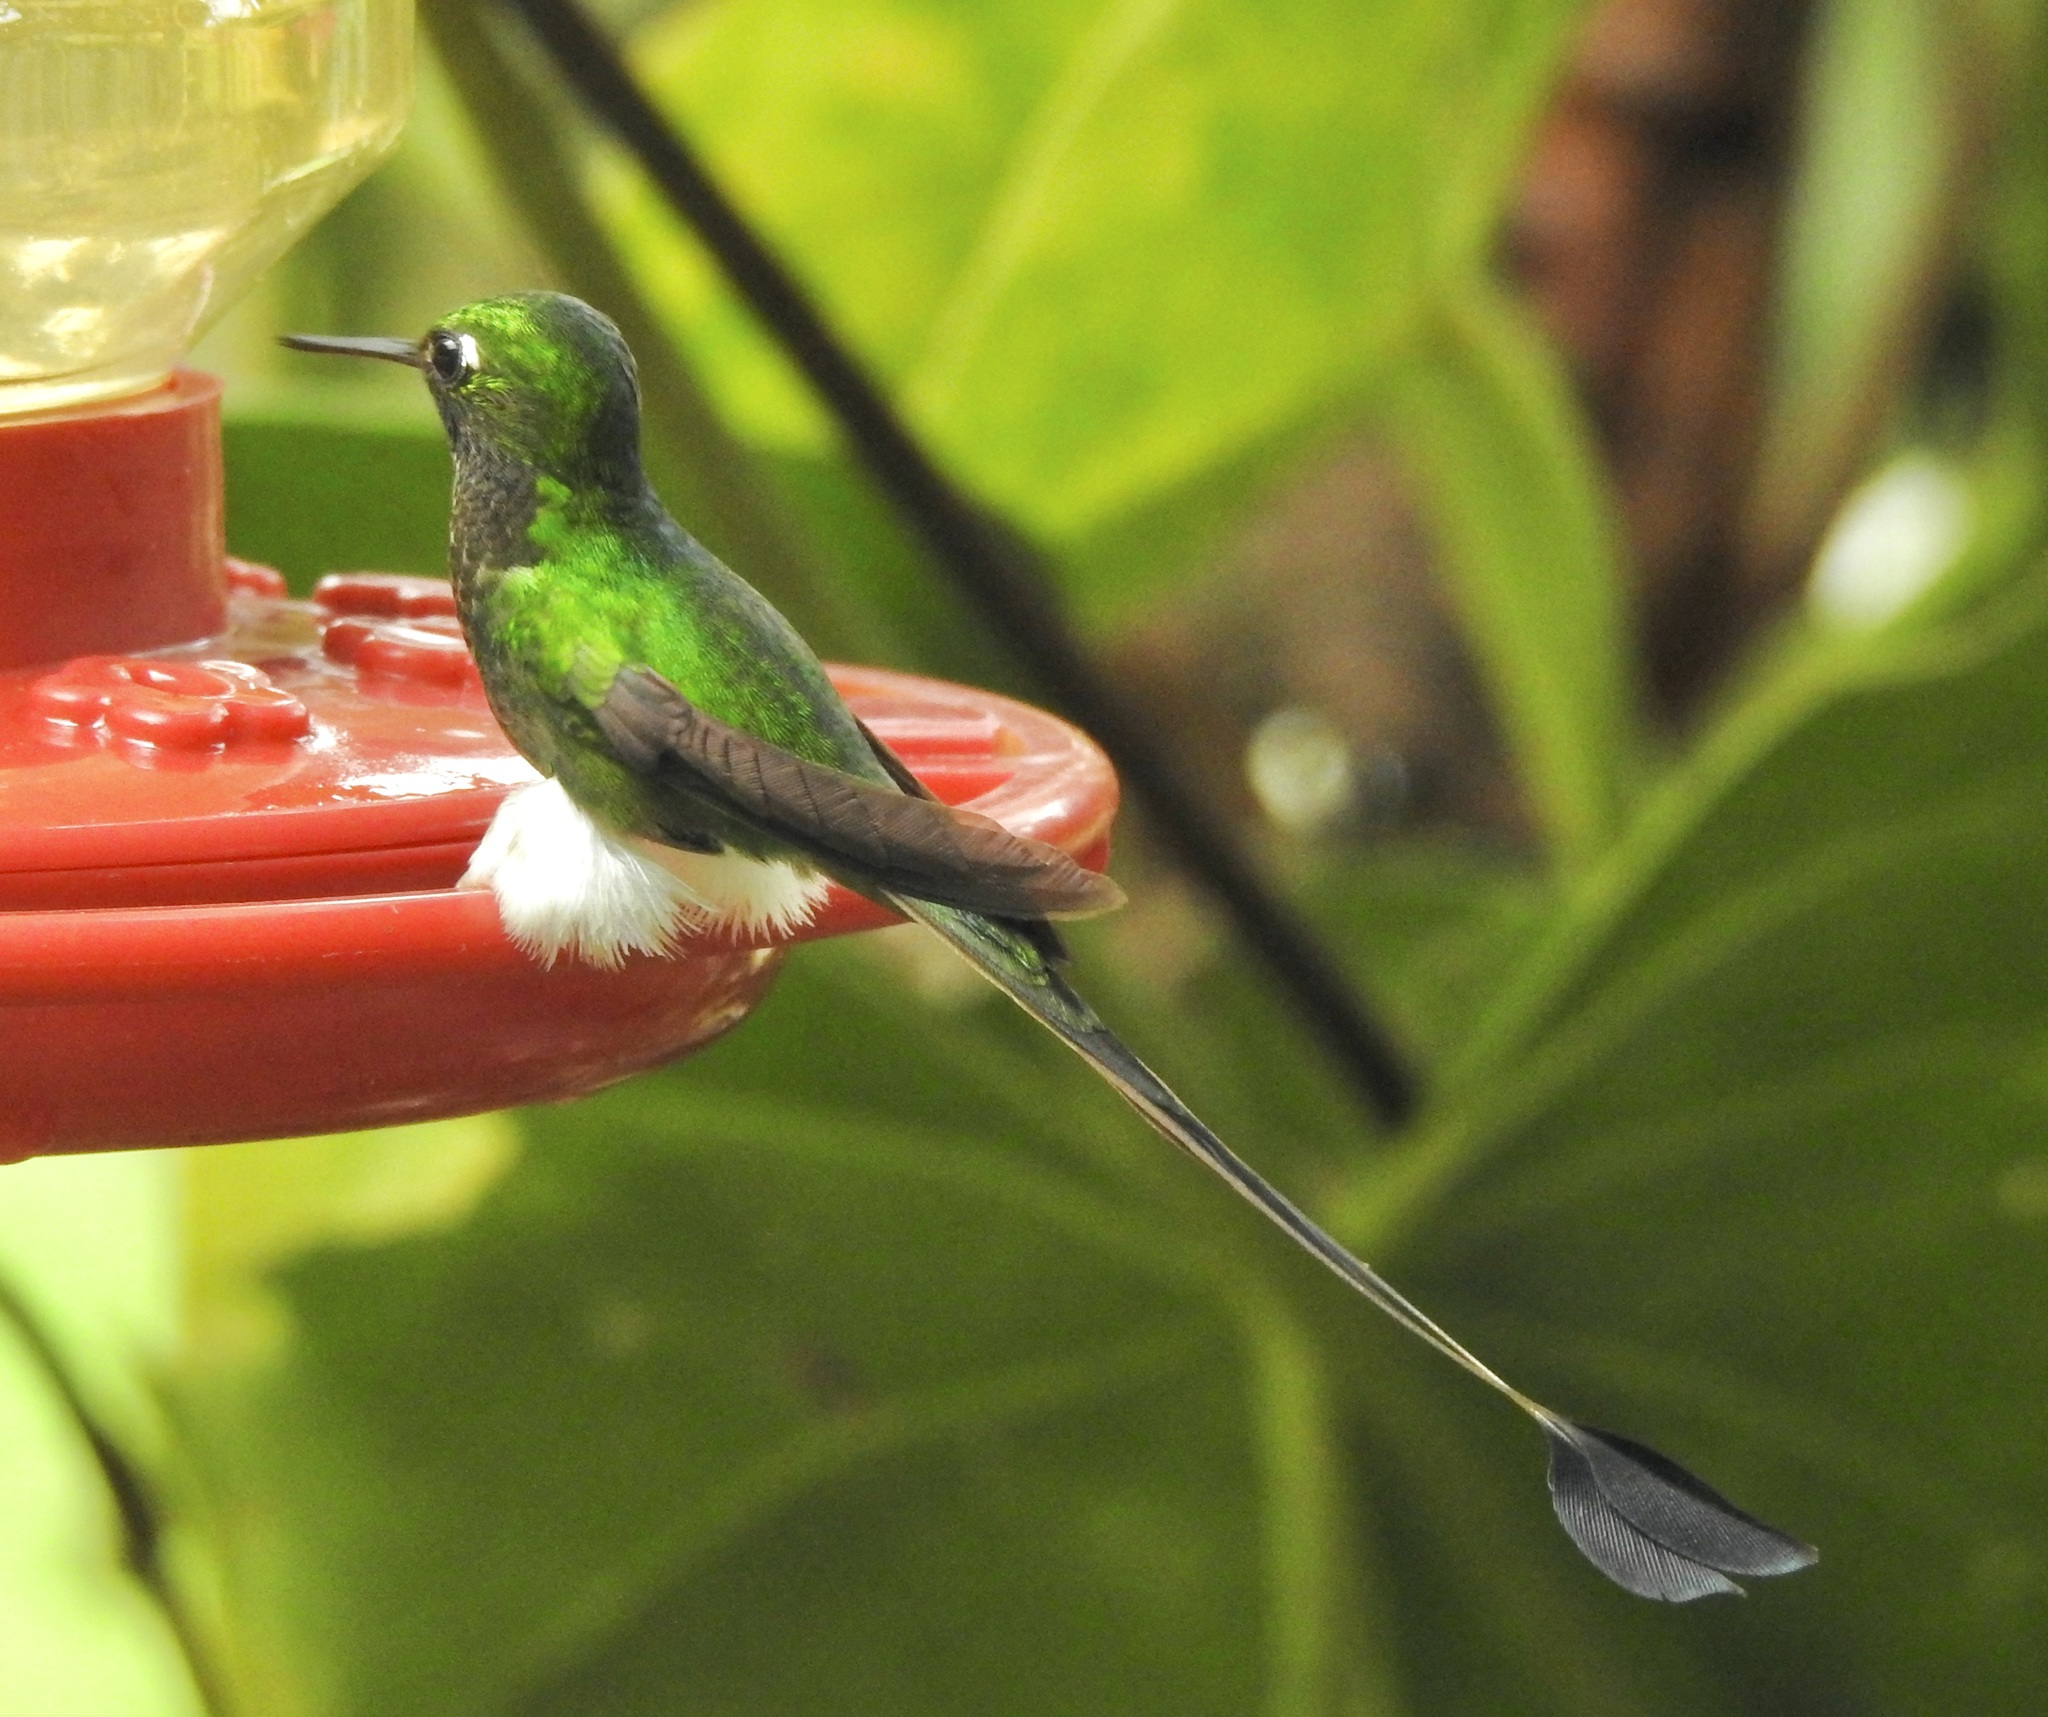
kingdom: Animalia
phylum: Chordata
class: Aves
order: Apodiformes
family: Trochilidae
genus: Ocreatus
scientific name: Ocreatus underwoodii
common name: Booted racket-tail
